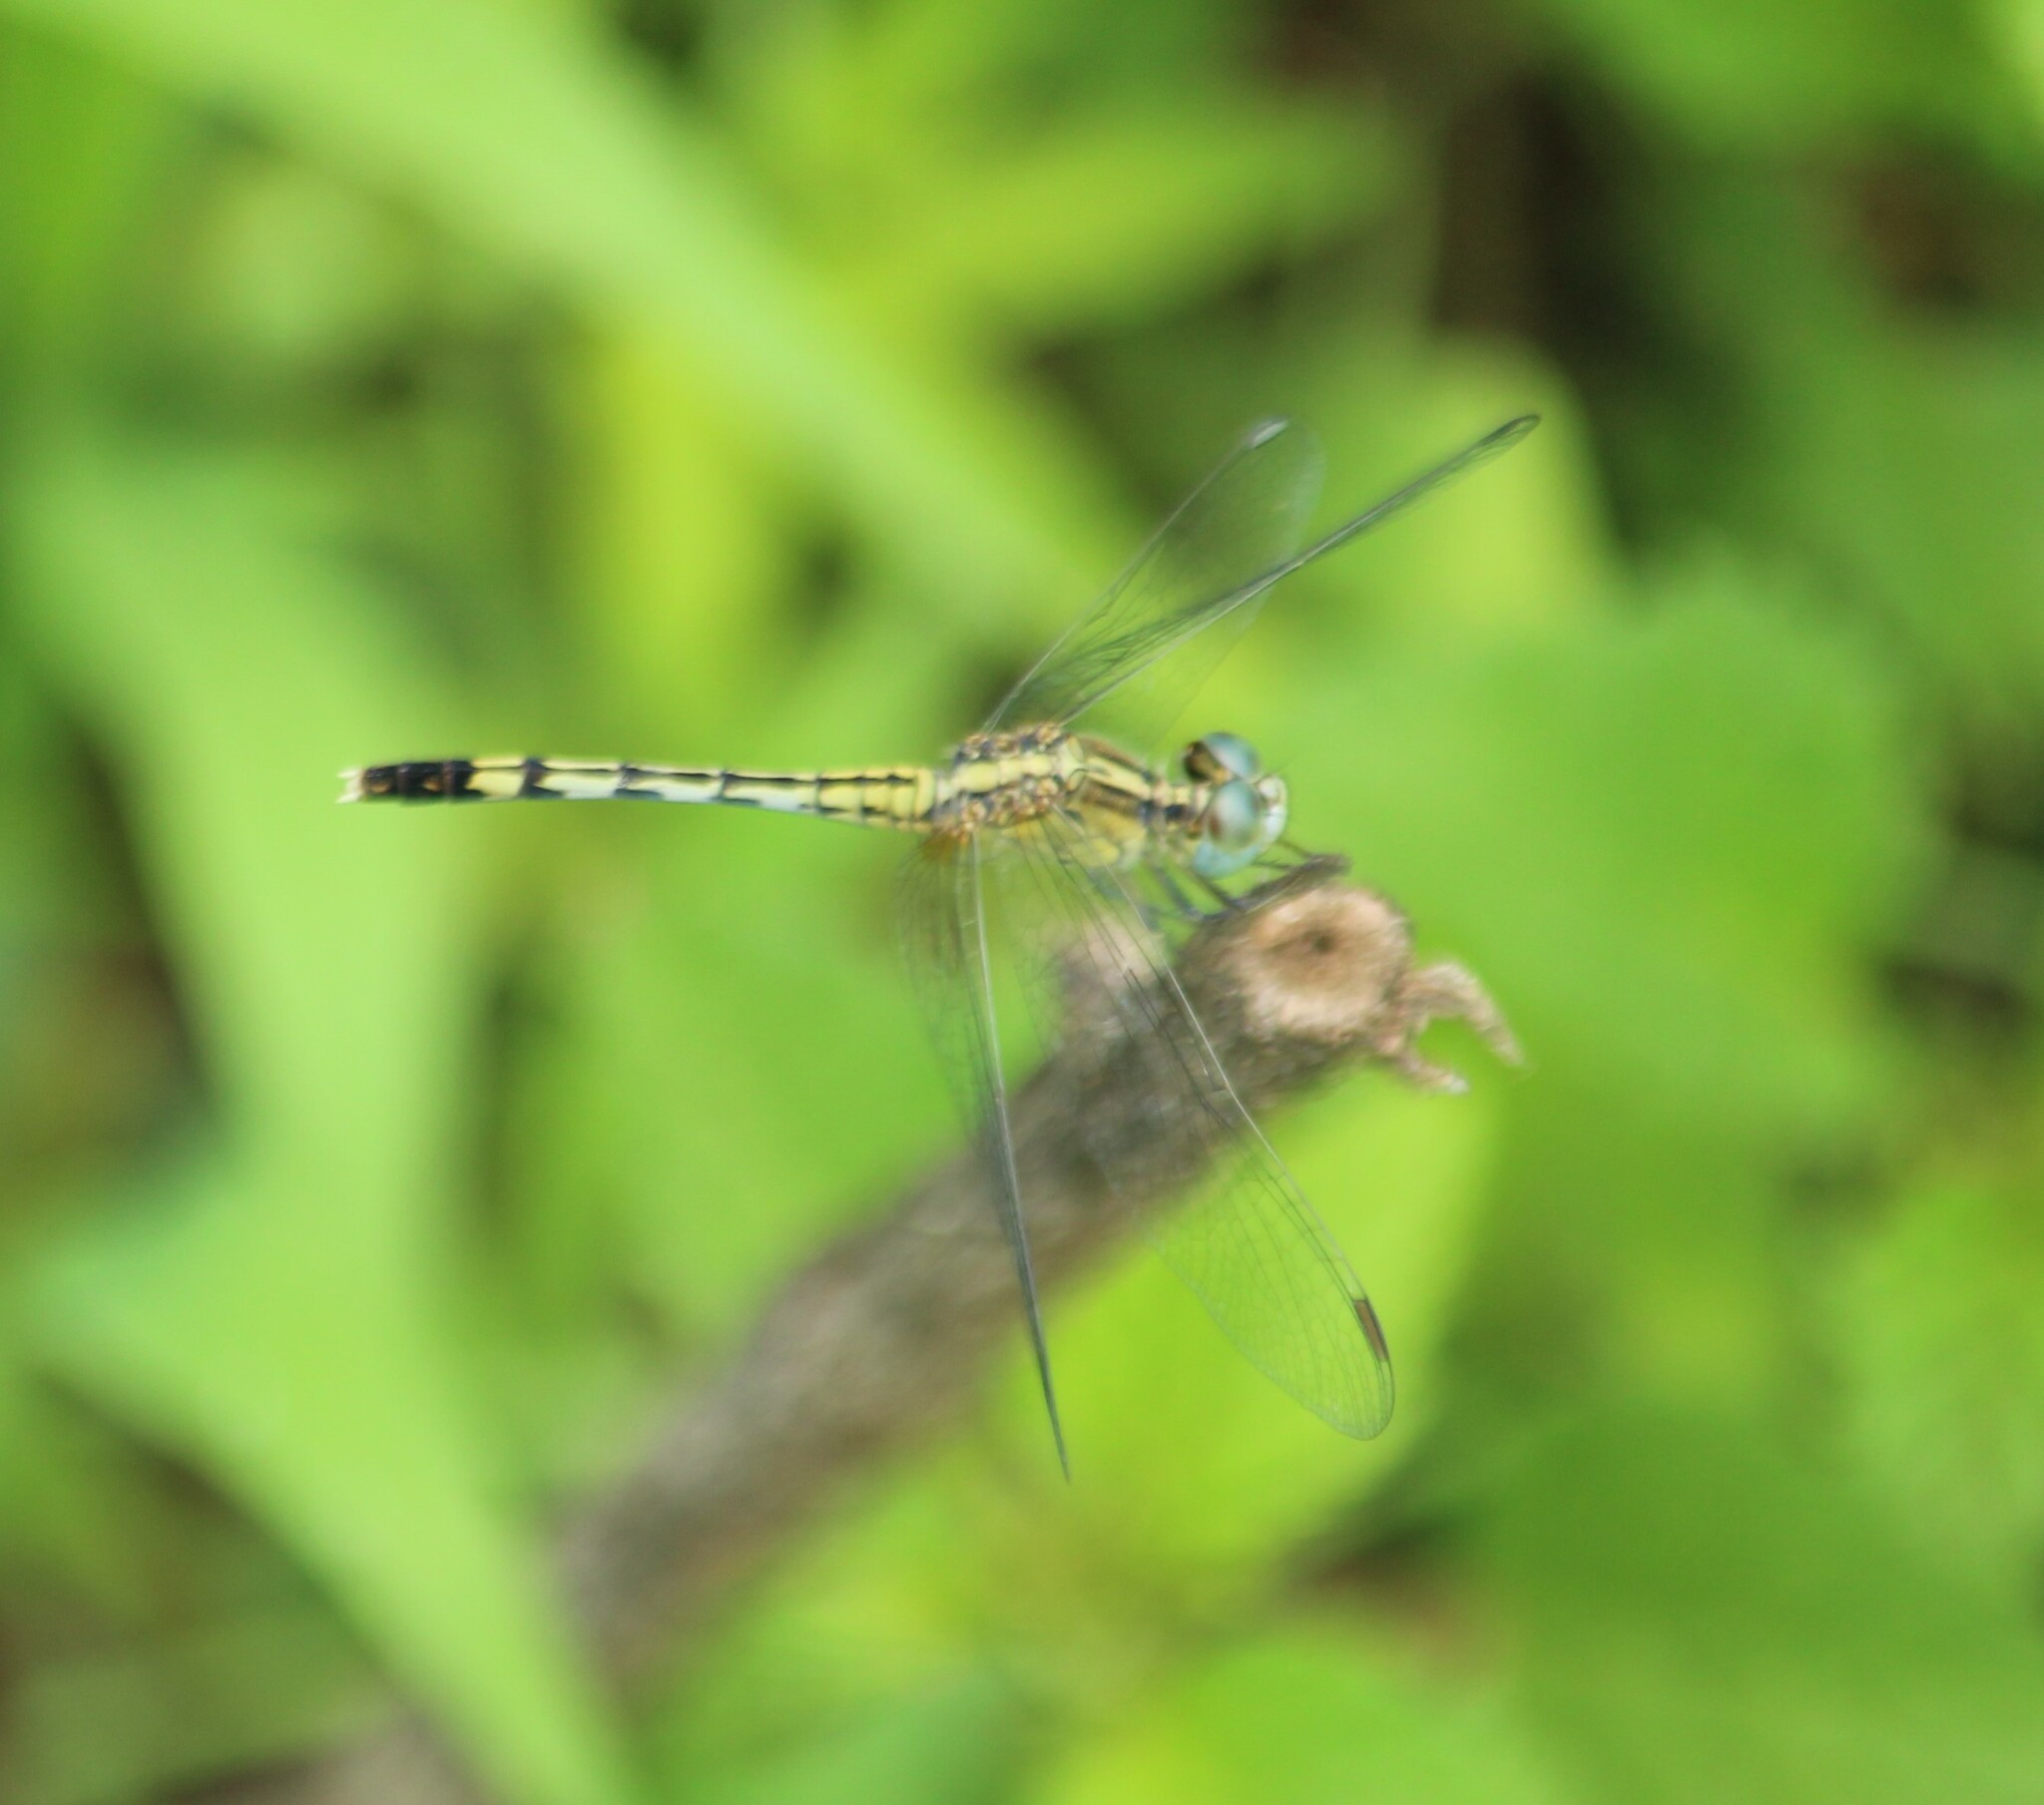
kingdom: Animalia
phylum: Arthropoda
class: Insecta
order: Odonata
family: Libellulidae
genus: Diplacodes
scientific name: Diplacodes trivialis
